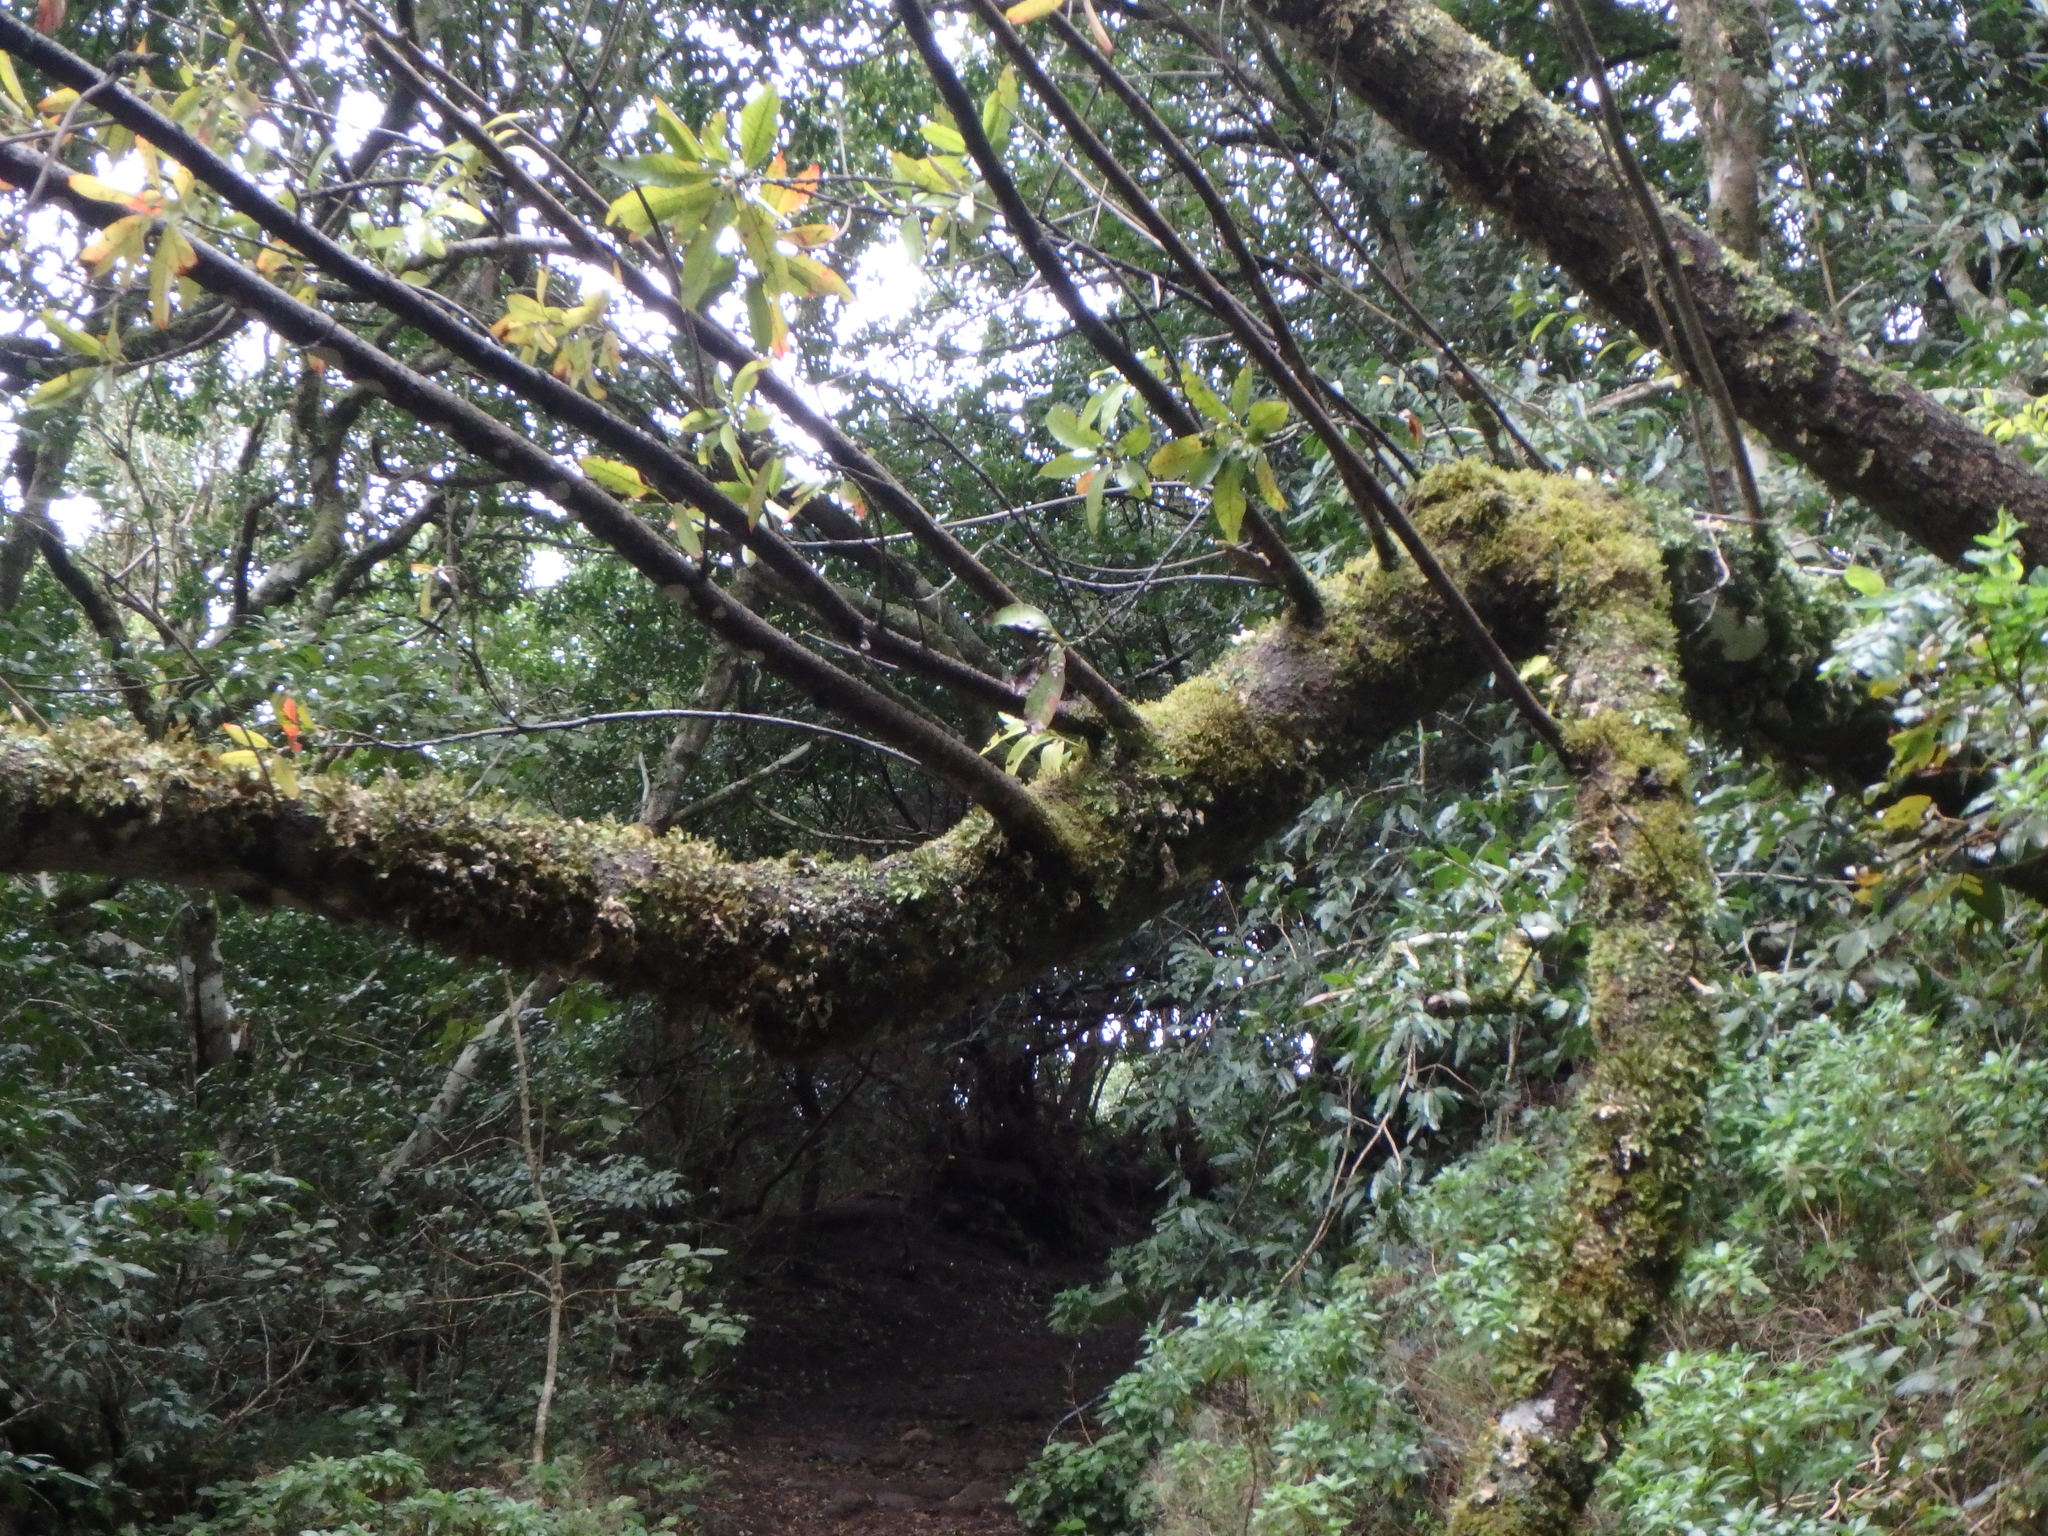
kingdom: Plantae
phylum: Tracheophyta
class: Magnoliopsida
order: Laurales
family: Lauraceae
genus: Persea
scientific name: Persea indica
